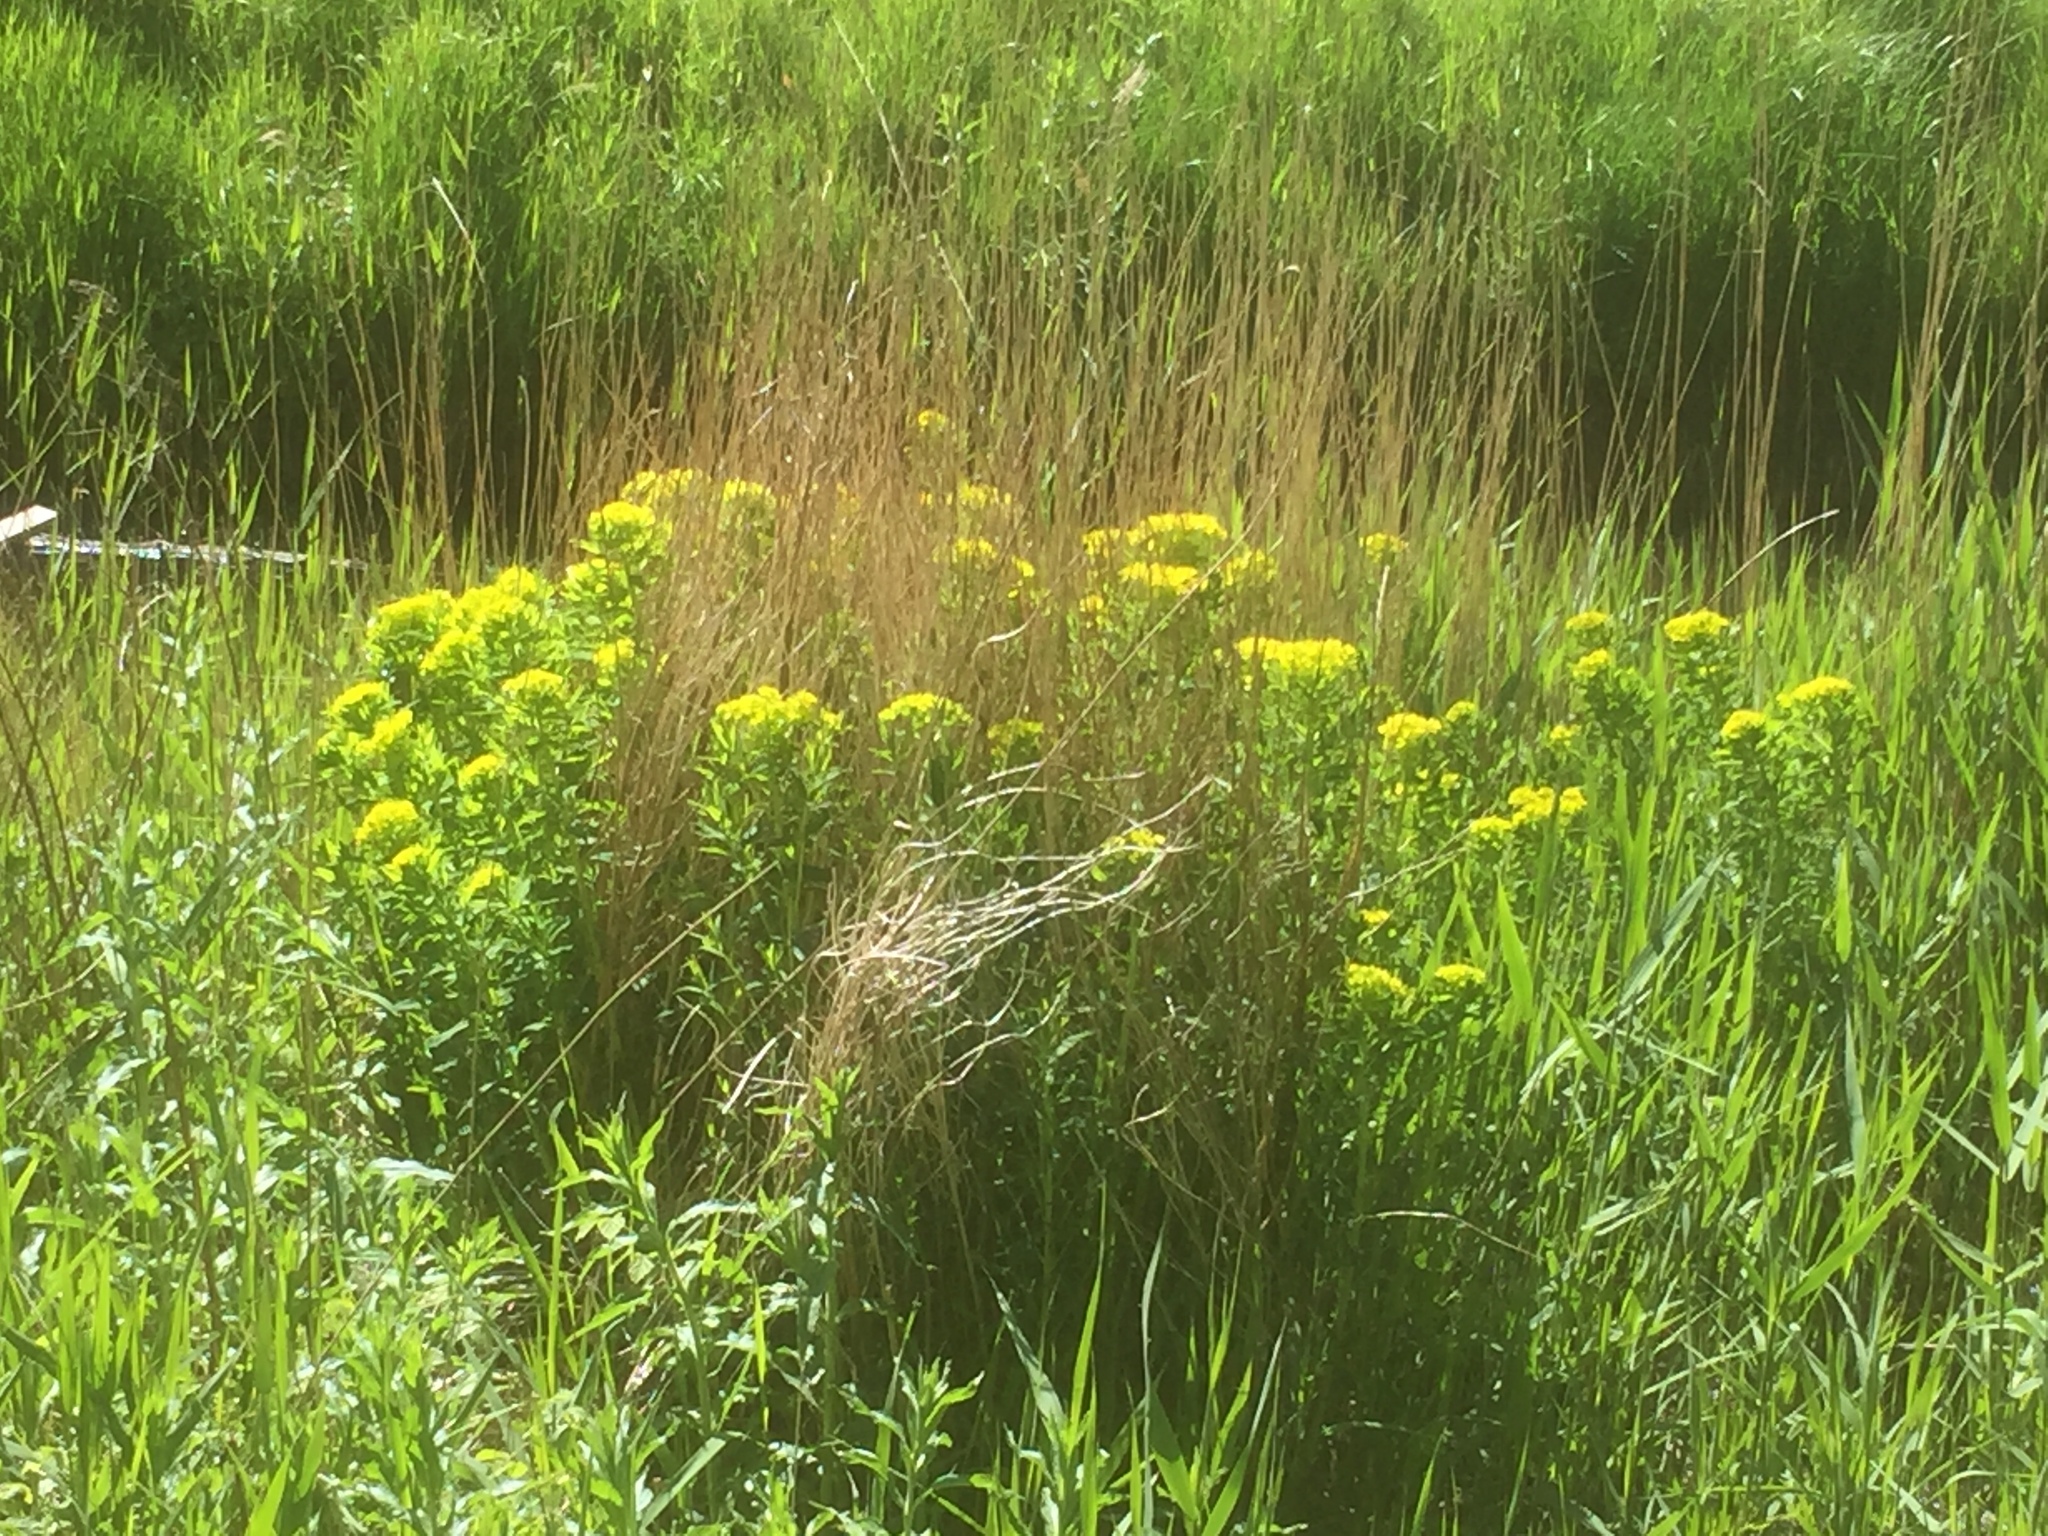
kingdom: Plantae
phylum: Tracheophyta
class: Magnoliopsida
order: Malpighiales
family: Euphorbiaceae
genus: Euphorbia
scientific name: Euphorbia palustris
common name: Marsh spurge
